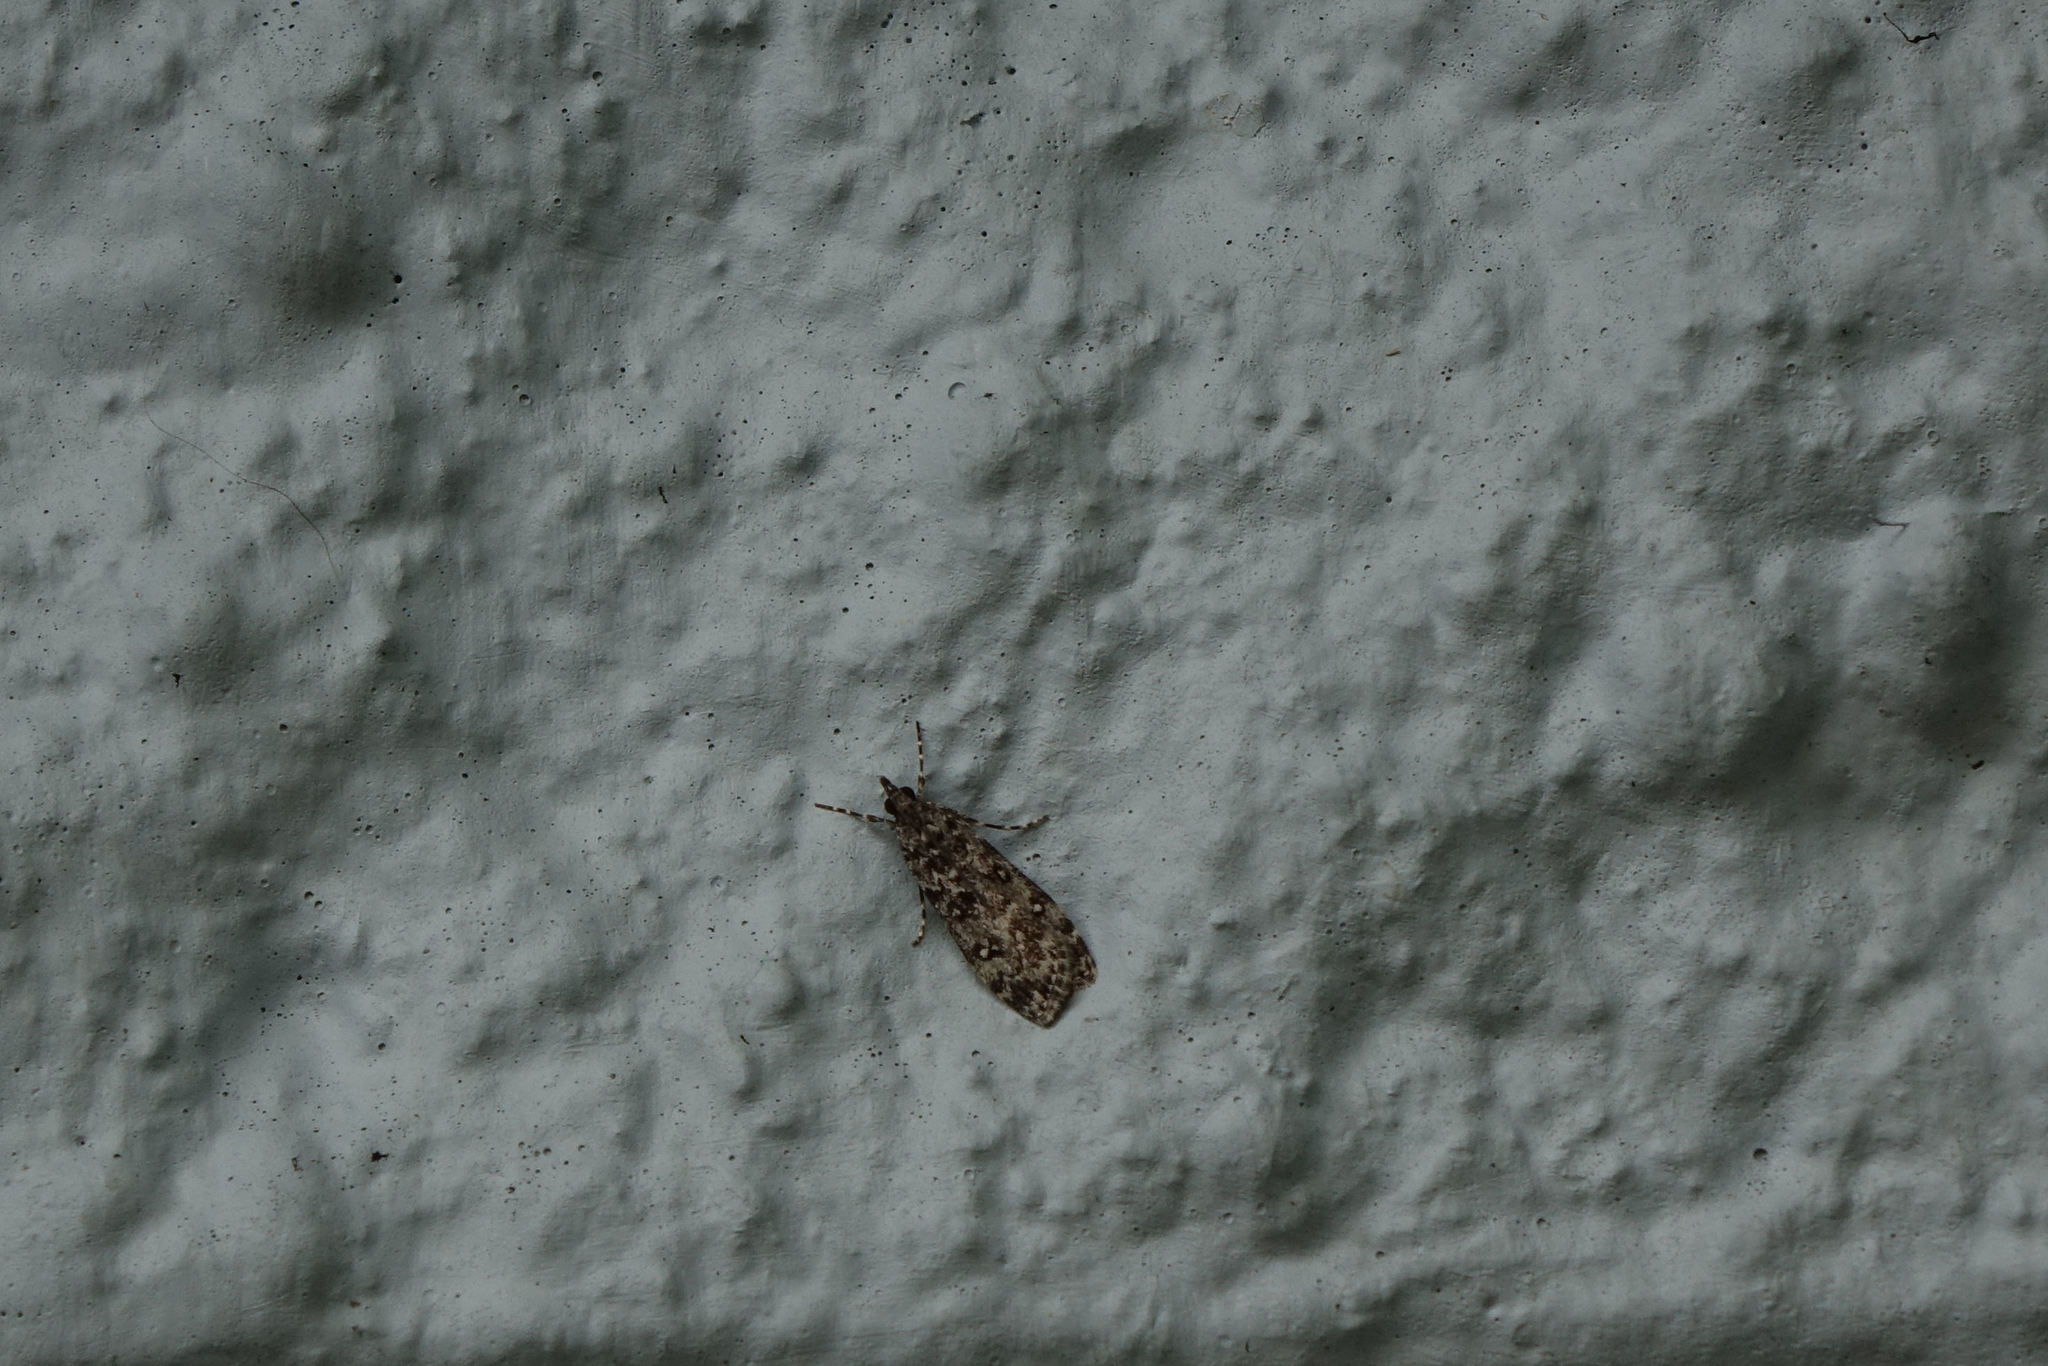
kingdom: Animalia
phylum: Arthropoda
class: Insecta
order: Lepidoptera
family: Crambidae
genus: Eudonia
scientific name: Eudonia philerga
